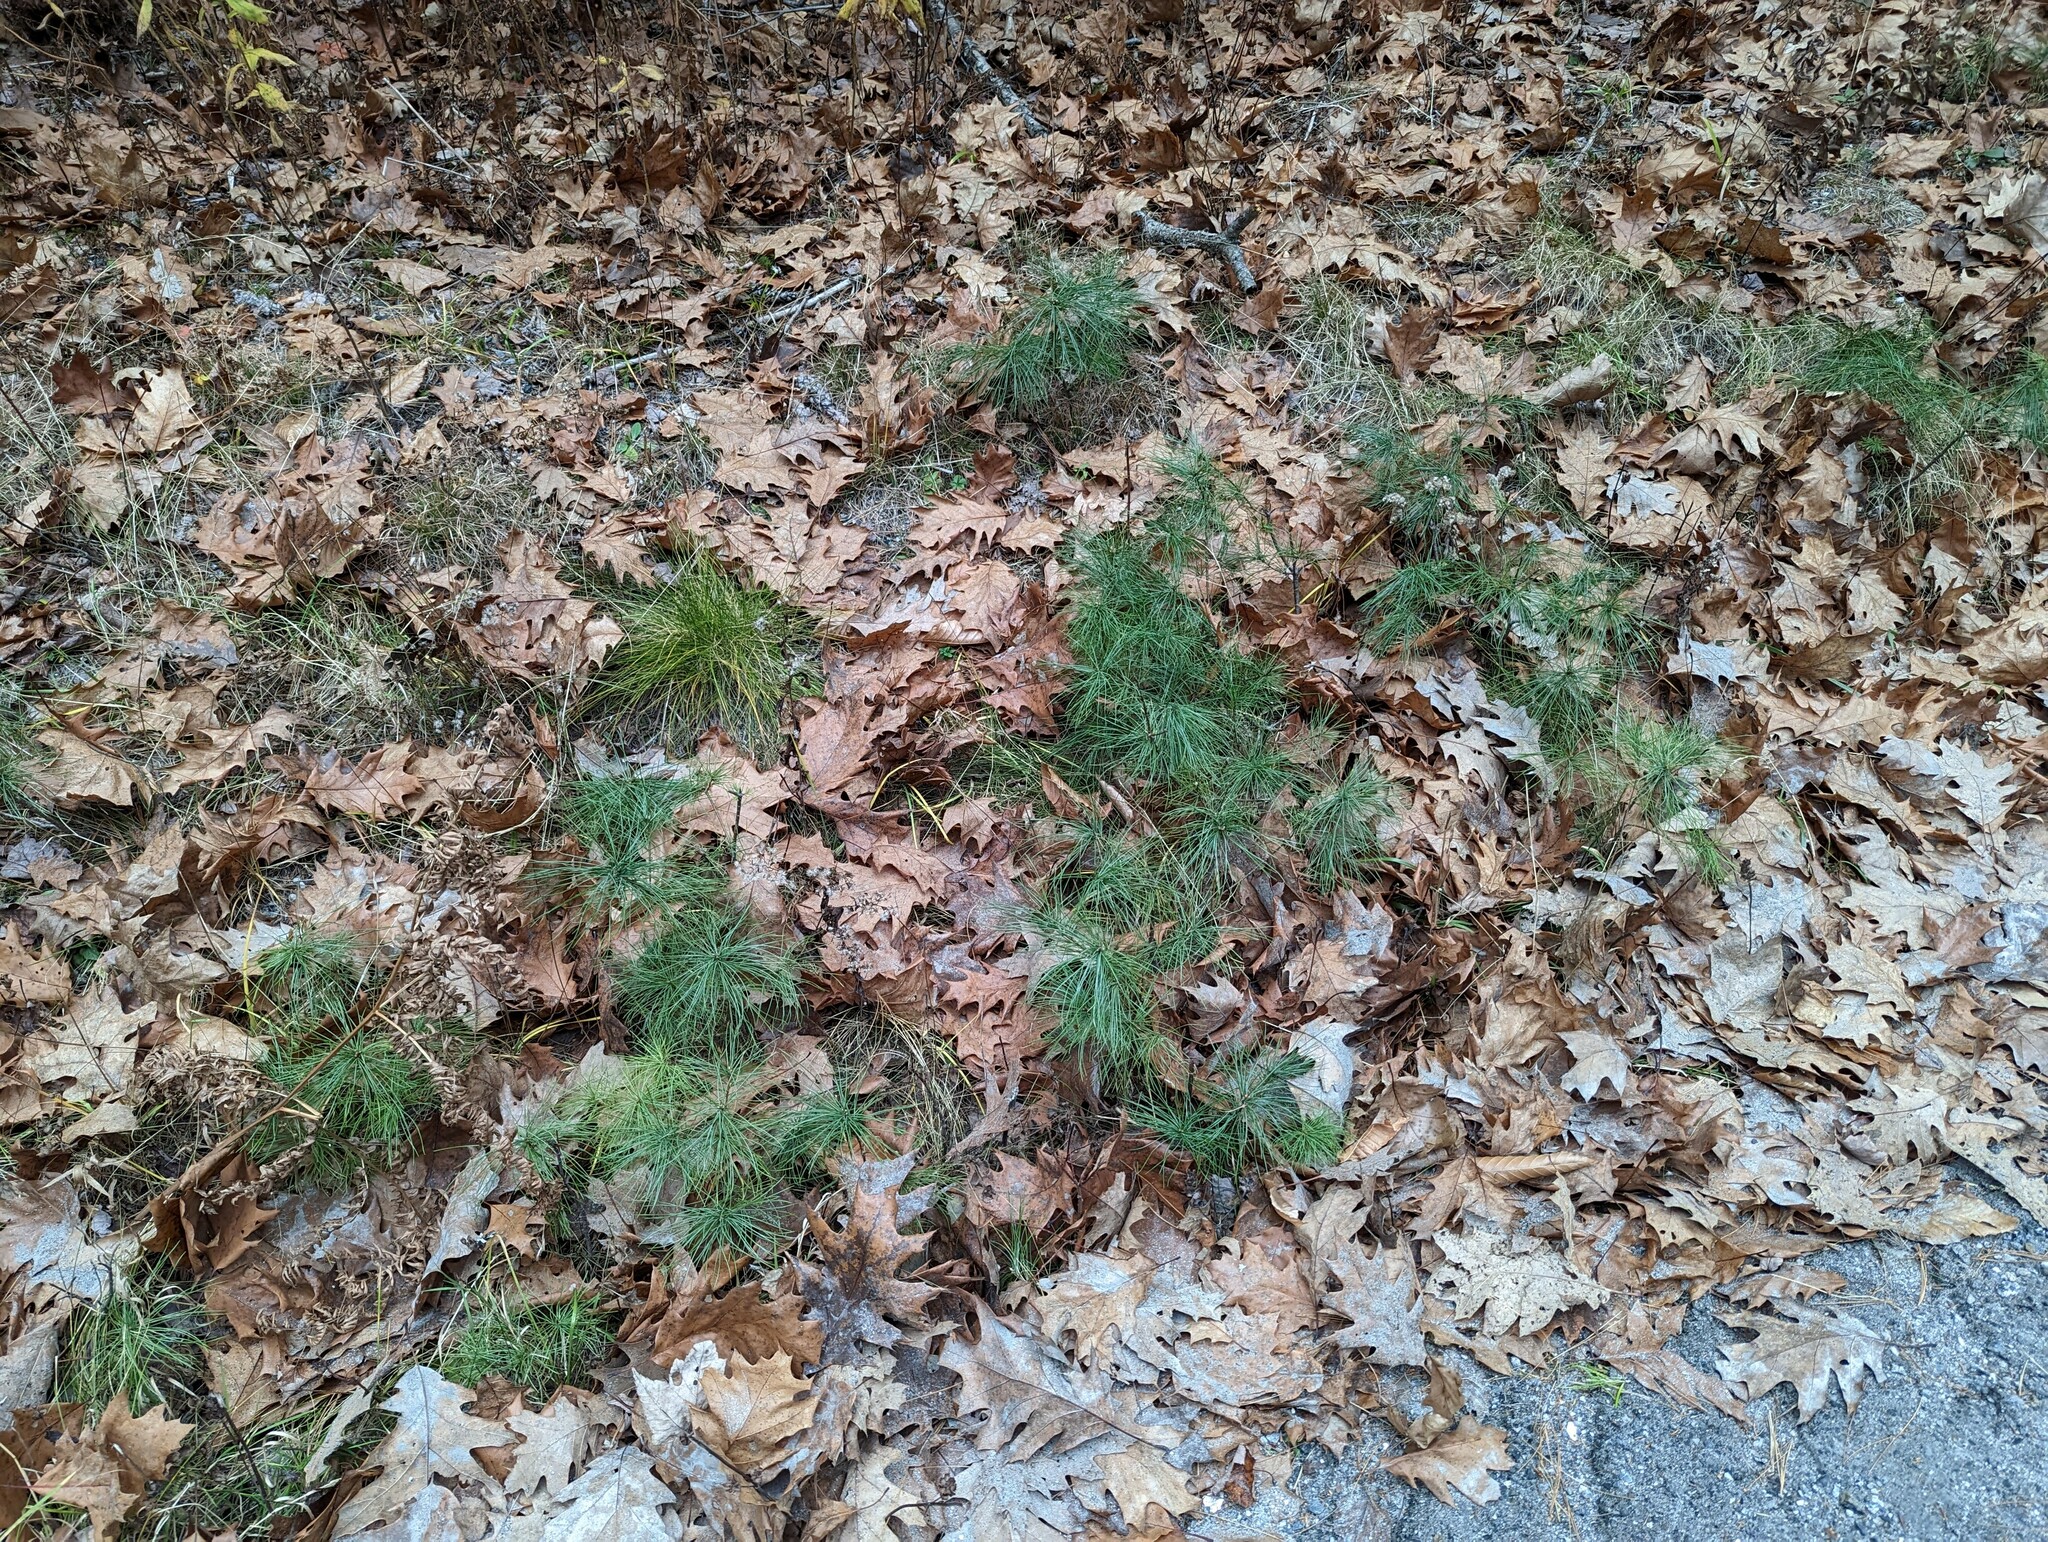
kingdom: Plantae
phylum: Tracheophyta
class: Pinopsida
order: Pinales
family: Pinaceae
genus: Pinus
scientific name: Pinus strobus
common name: Weymouth pine
